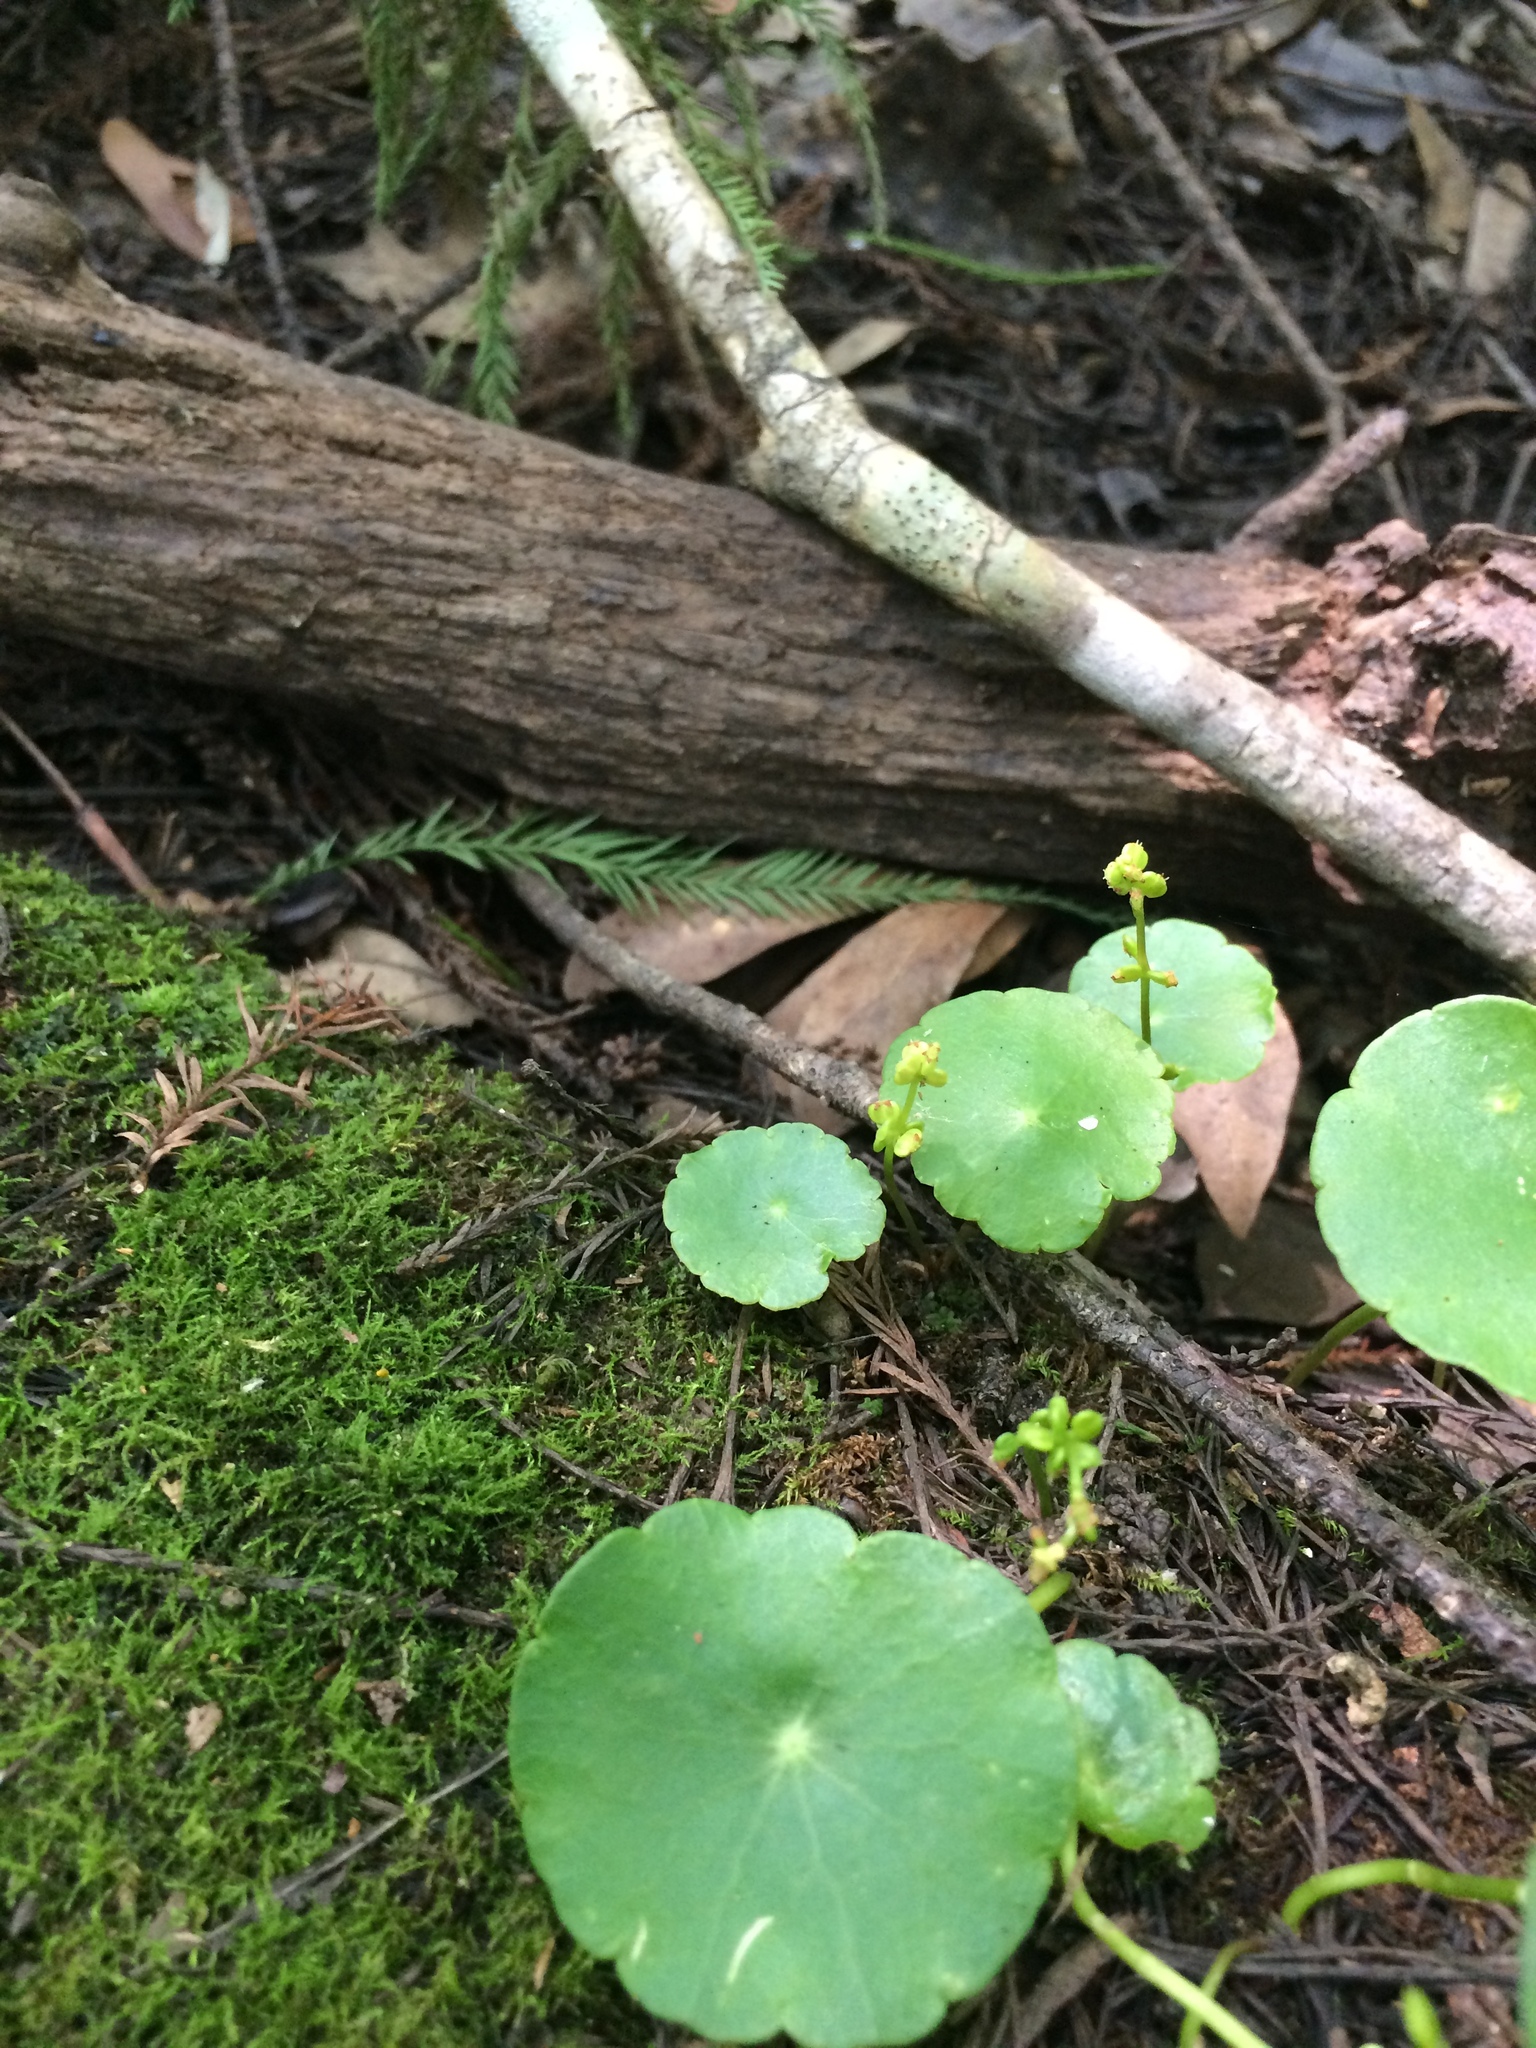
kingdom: Plantae
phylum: Tracheophyta
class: Magnoliopsida
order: Apiales
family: Araliaceae
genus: Hydrocotyle
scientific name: Hydrocotyle verticillata
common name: Whorled marshpennywort
